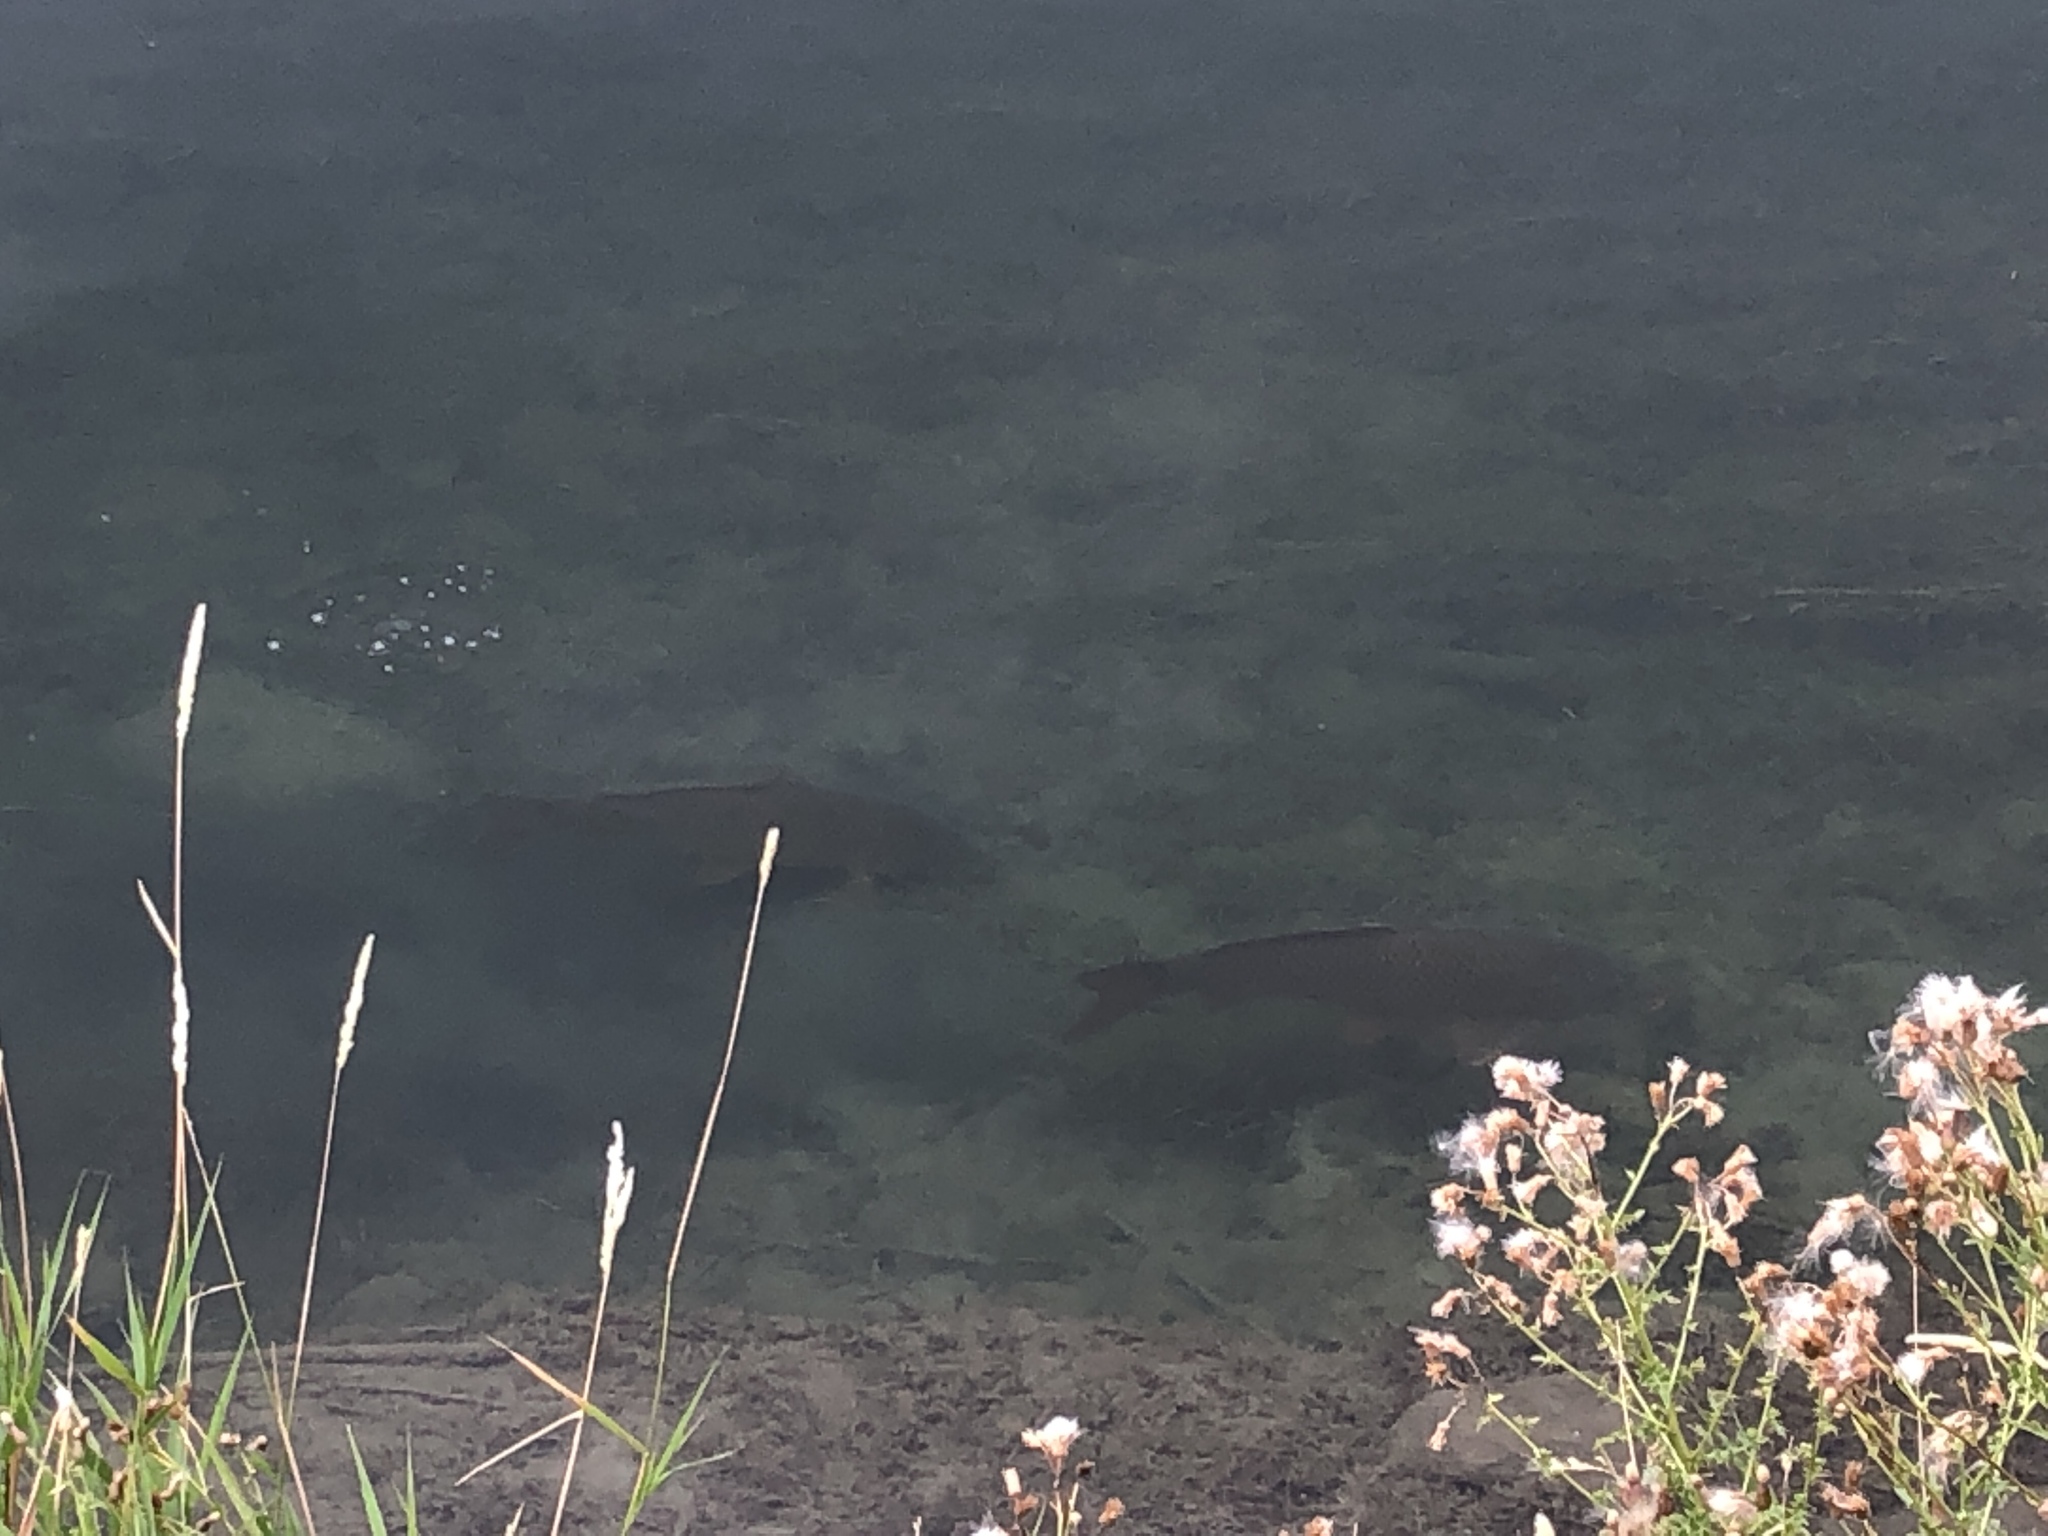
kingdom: Animalia
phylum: Chordata
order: Cypriniformes
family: Cyprinidae
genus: Cyprinus
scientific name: Cyprinus carpio
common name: Common carp
